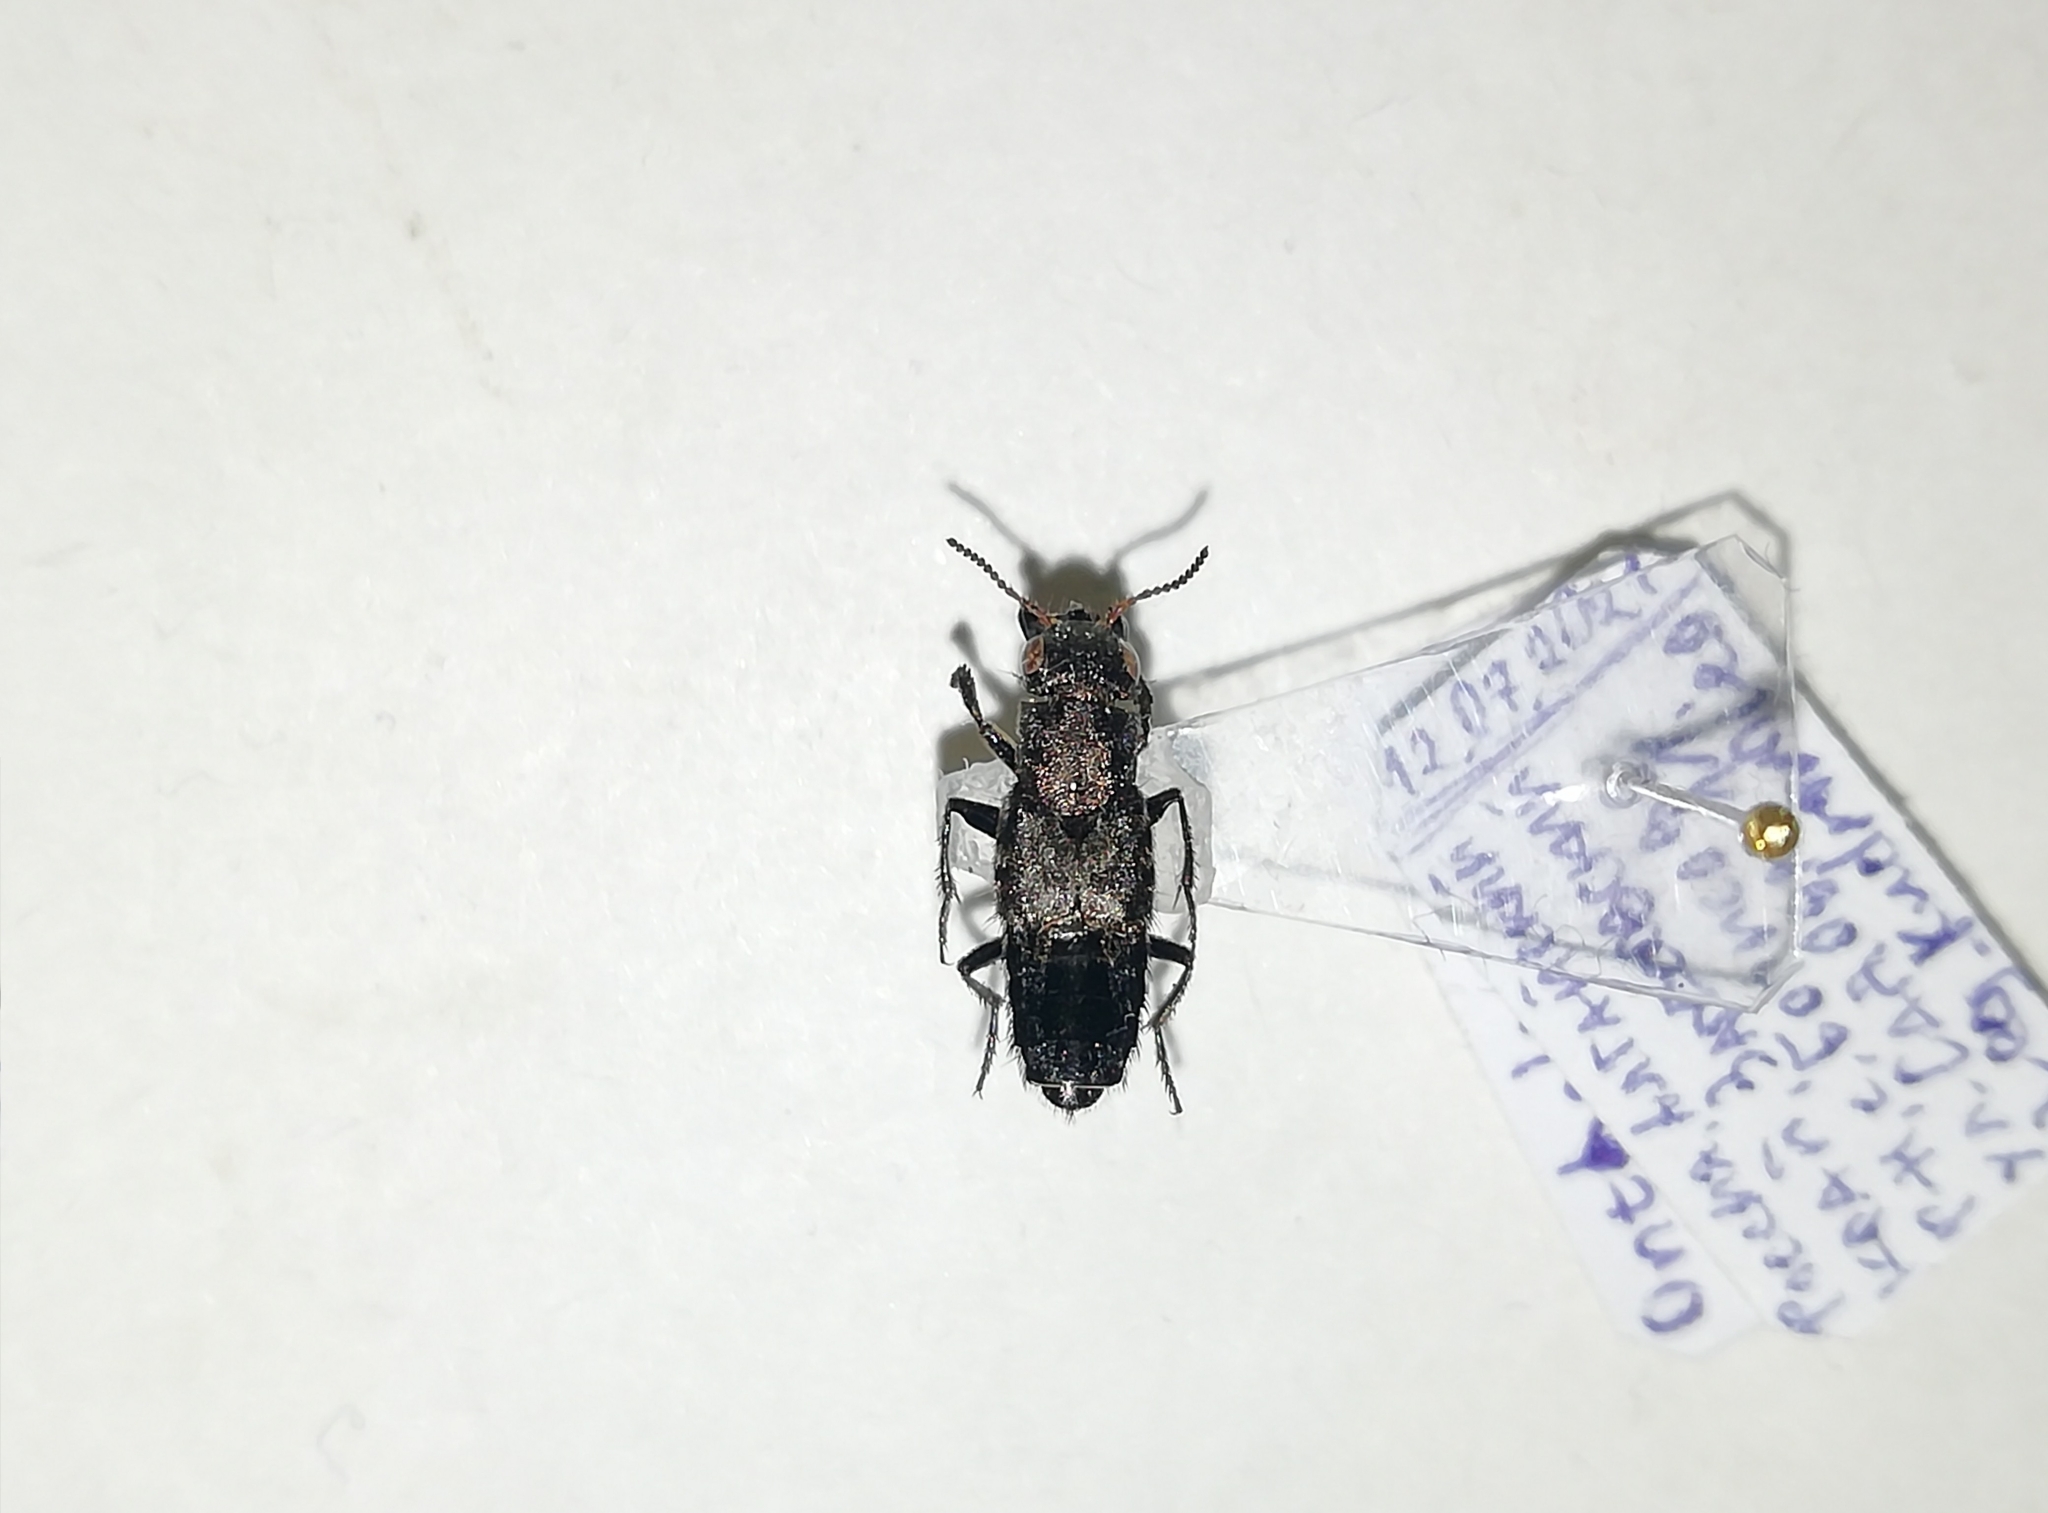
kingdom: Animalia
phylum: Arthropoda
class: Insecta
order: Coleoptera
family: Staphylinidae
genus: Ontholestes
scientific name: Ontholestes murinus
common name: Staph beetle
